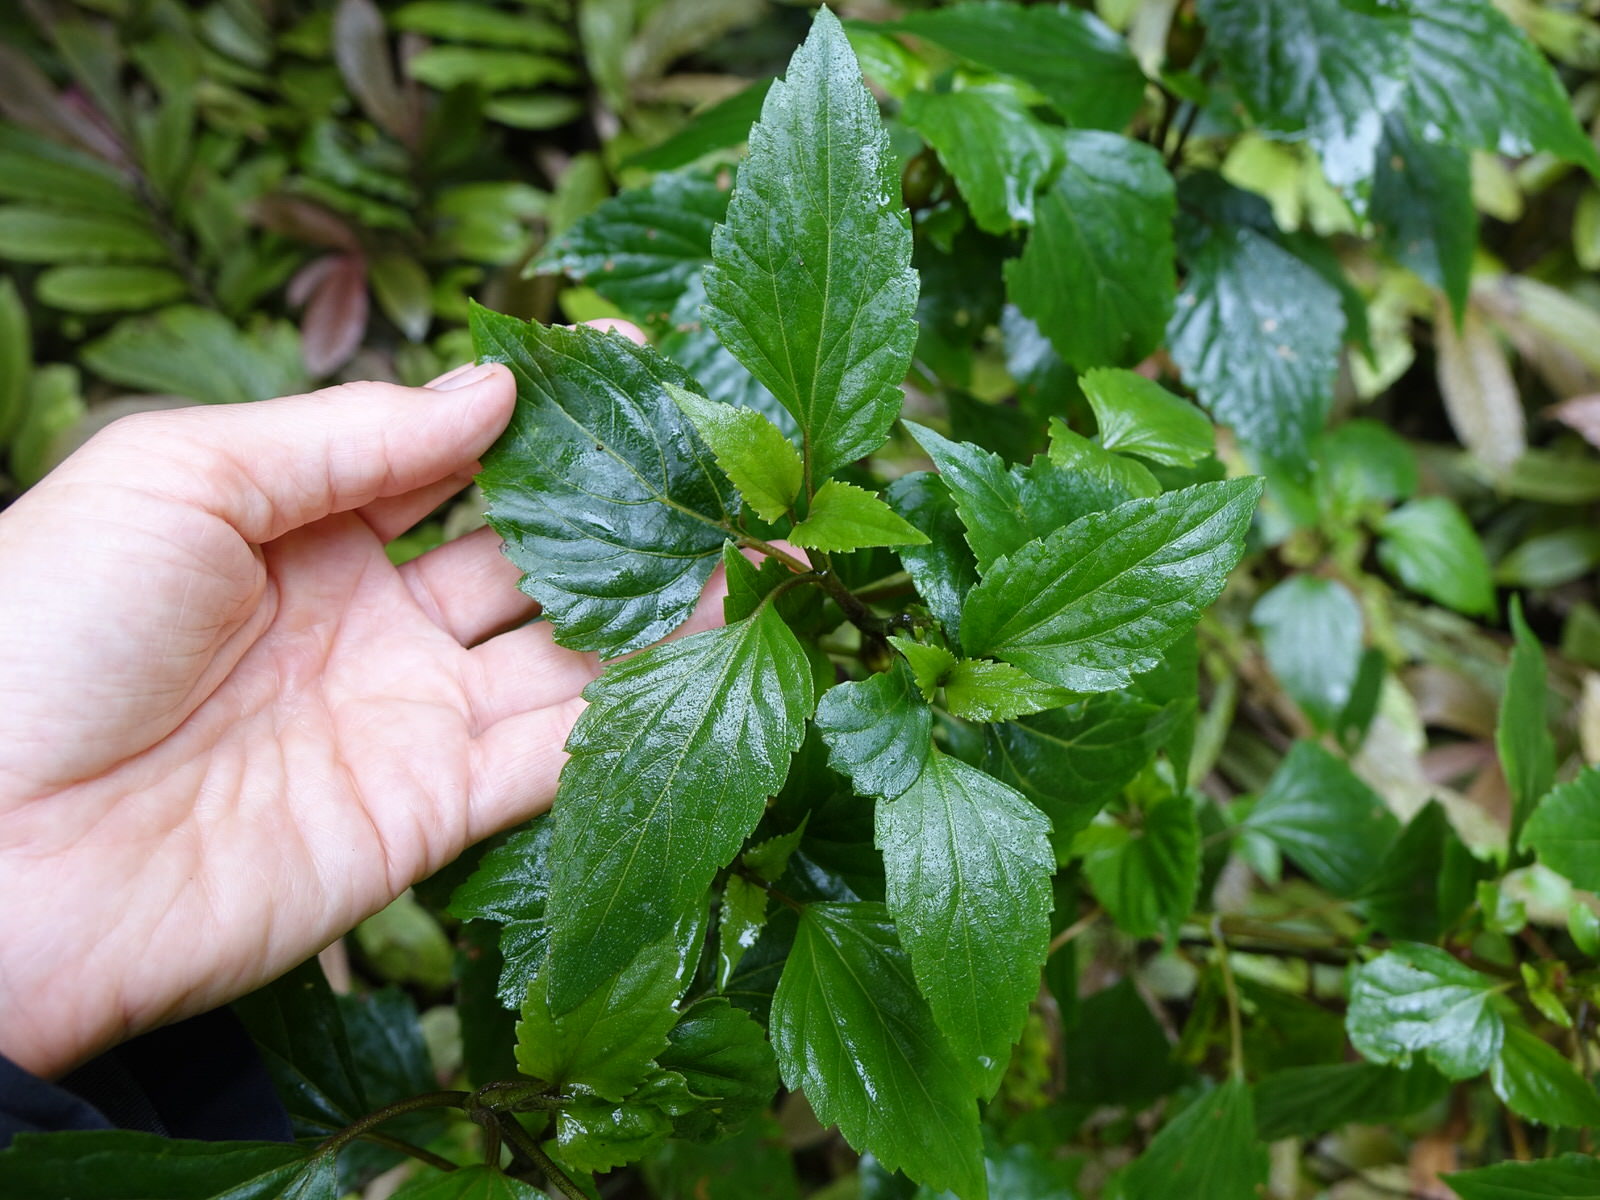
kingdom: Plantae
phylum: Tracheophyta
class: Magnoliopsida
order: Asterales
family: Asteraceae
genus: Ageratina
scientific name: Ageratina adenophora
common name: Sticky snakeroot
